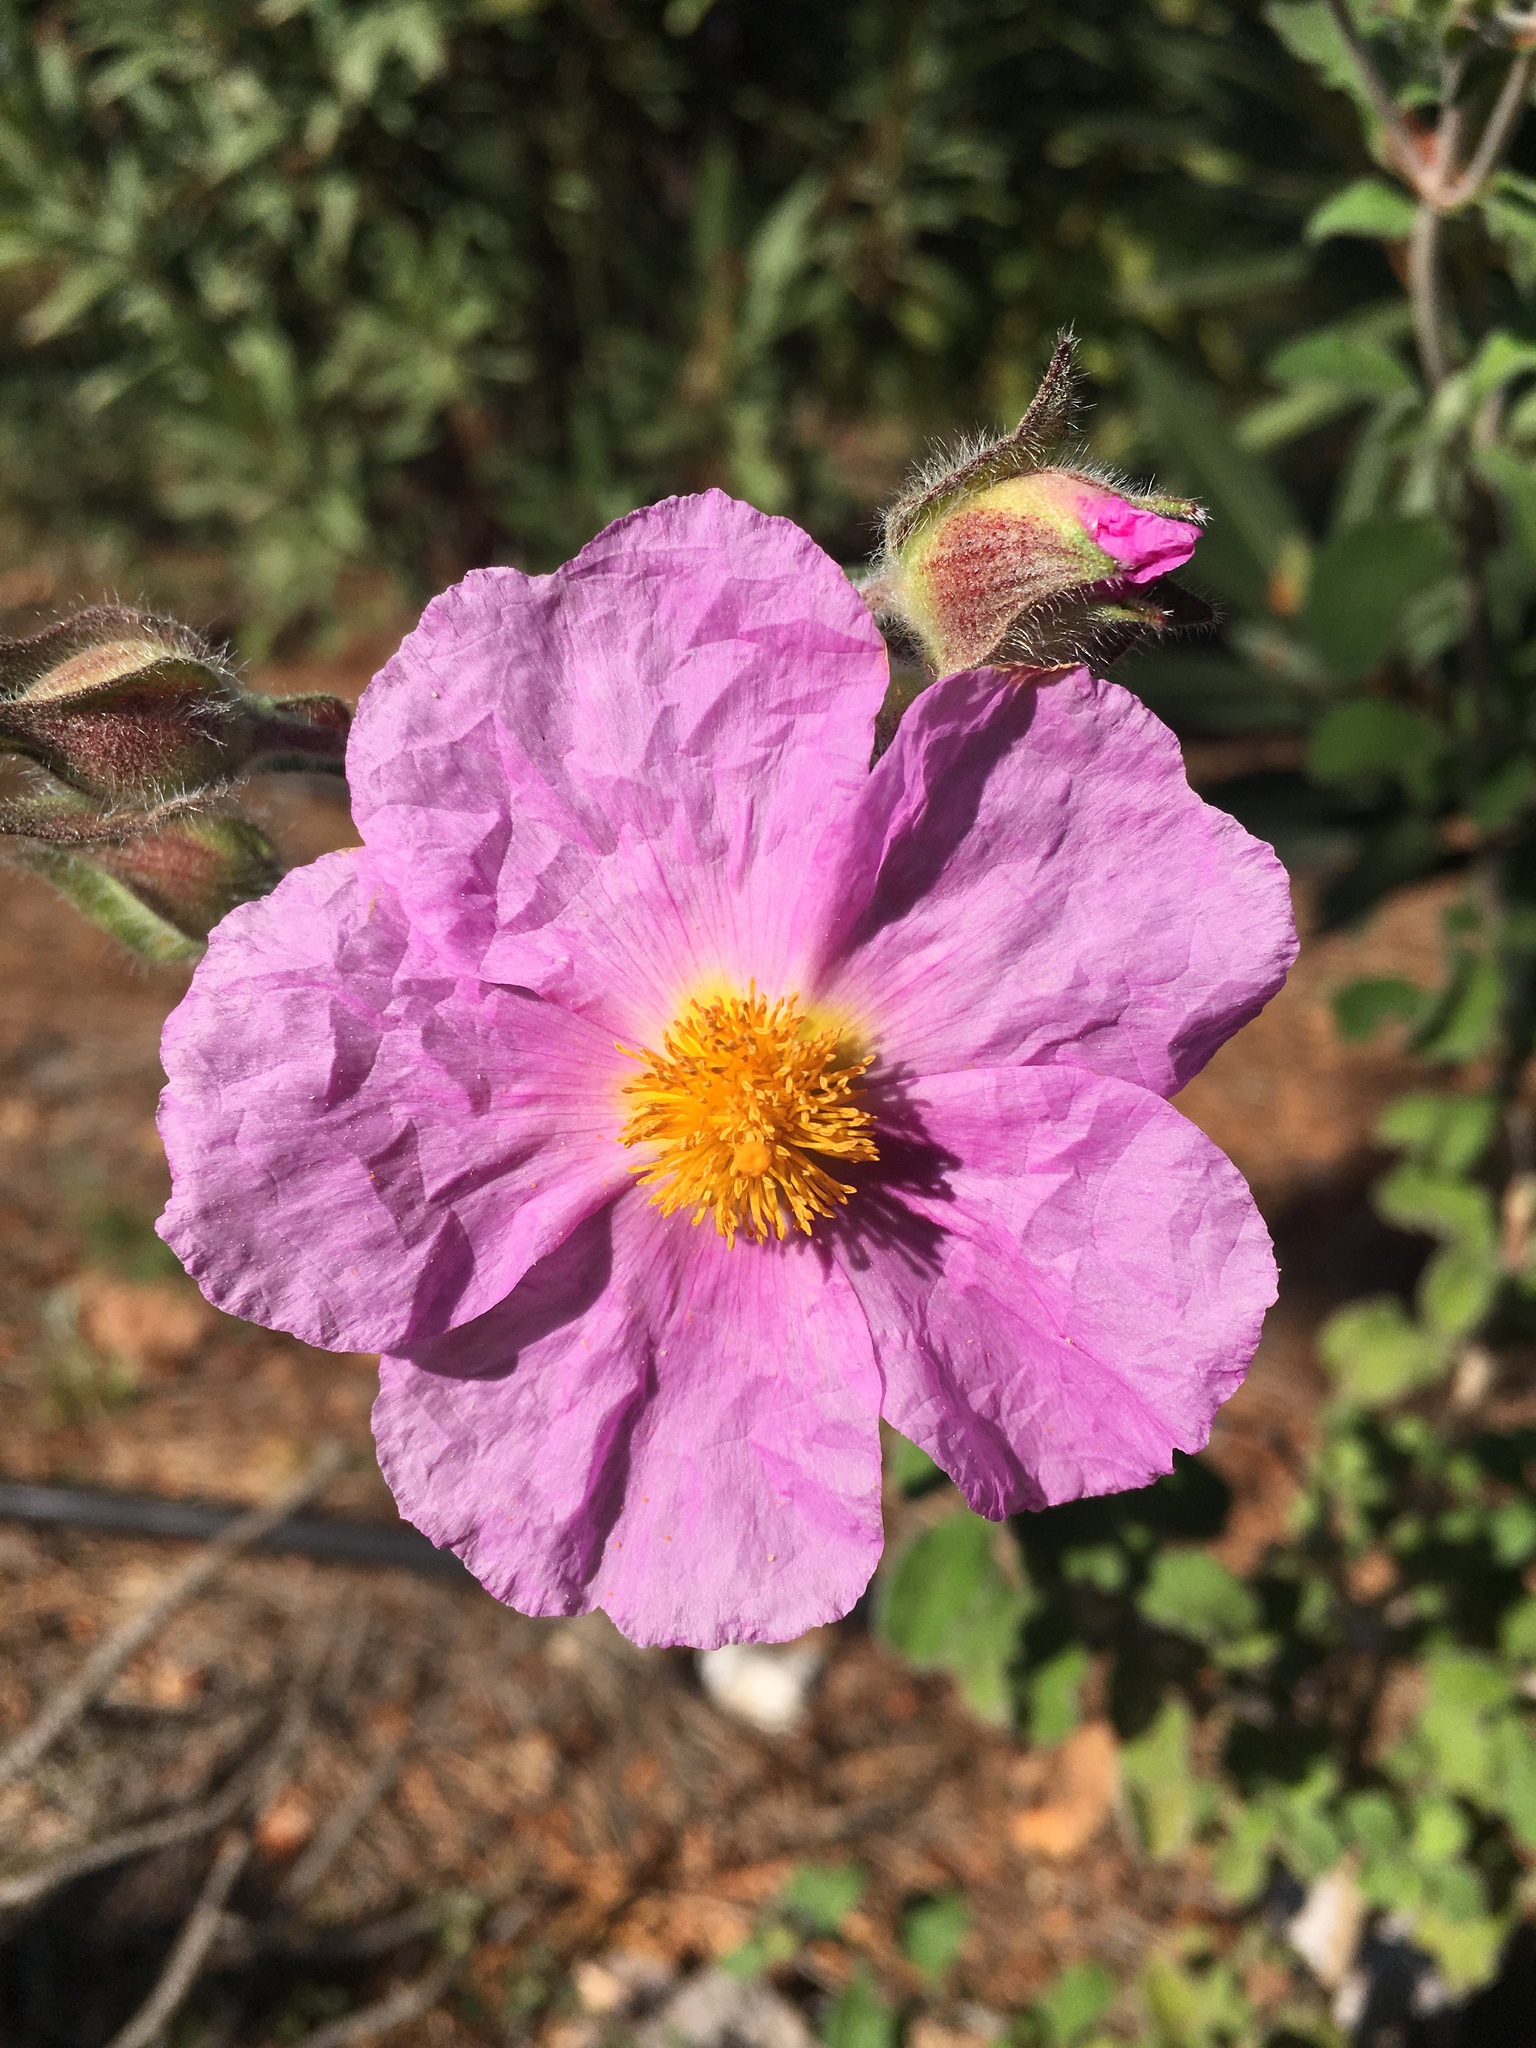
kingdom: Plantae
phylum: Tracheophyta
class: Magnoliopsida
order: Malvales
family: Cistaceae
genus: Cistus
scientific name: Cistus creticus
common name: Cretan rockrose
